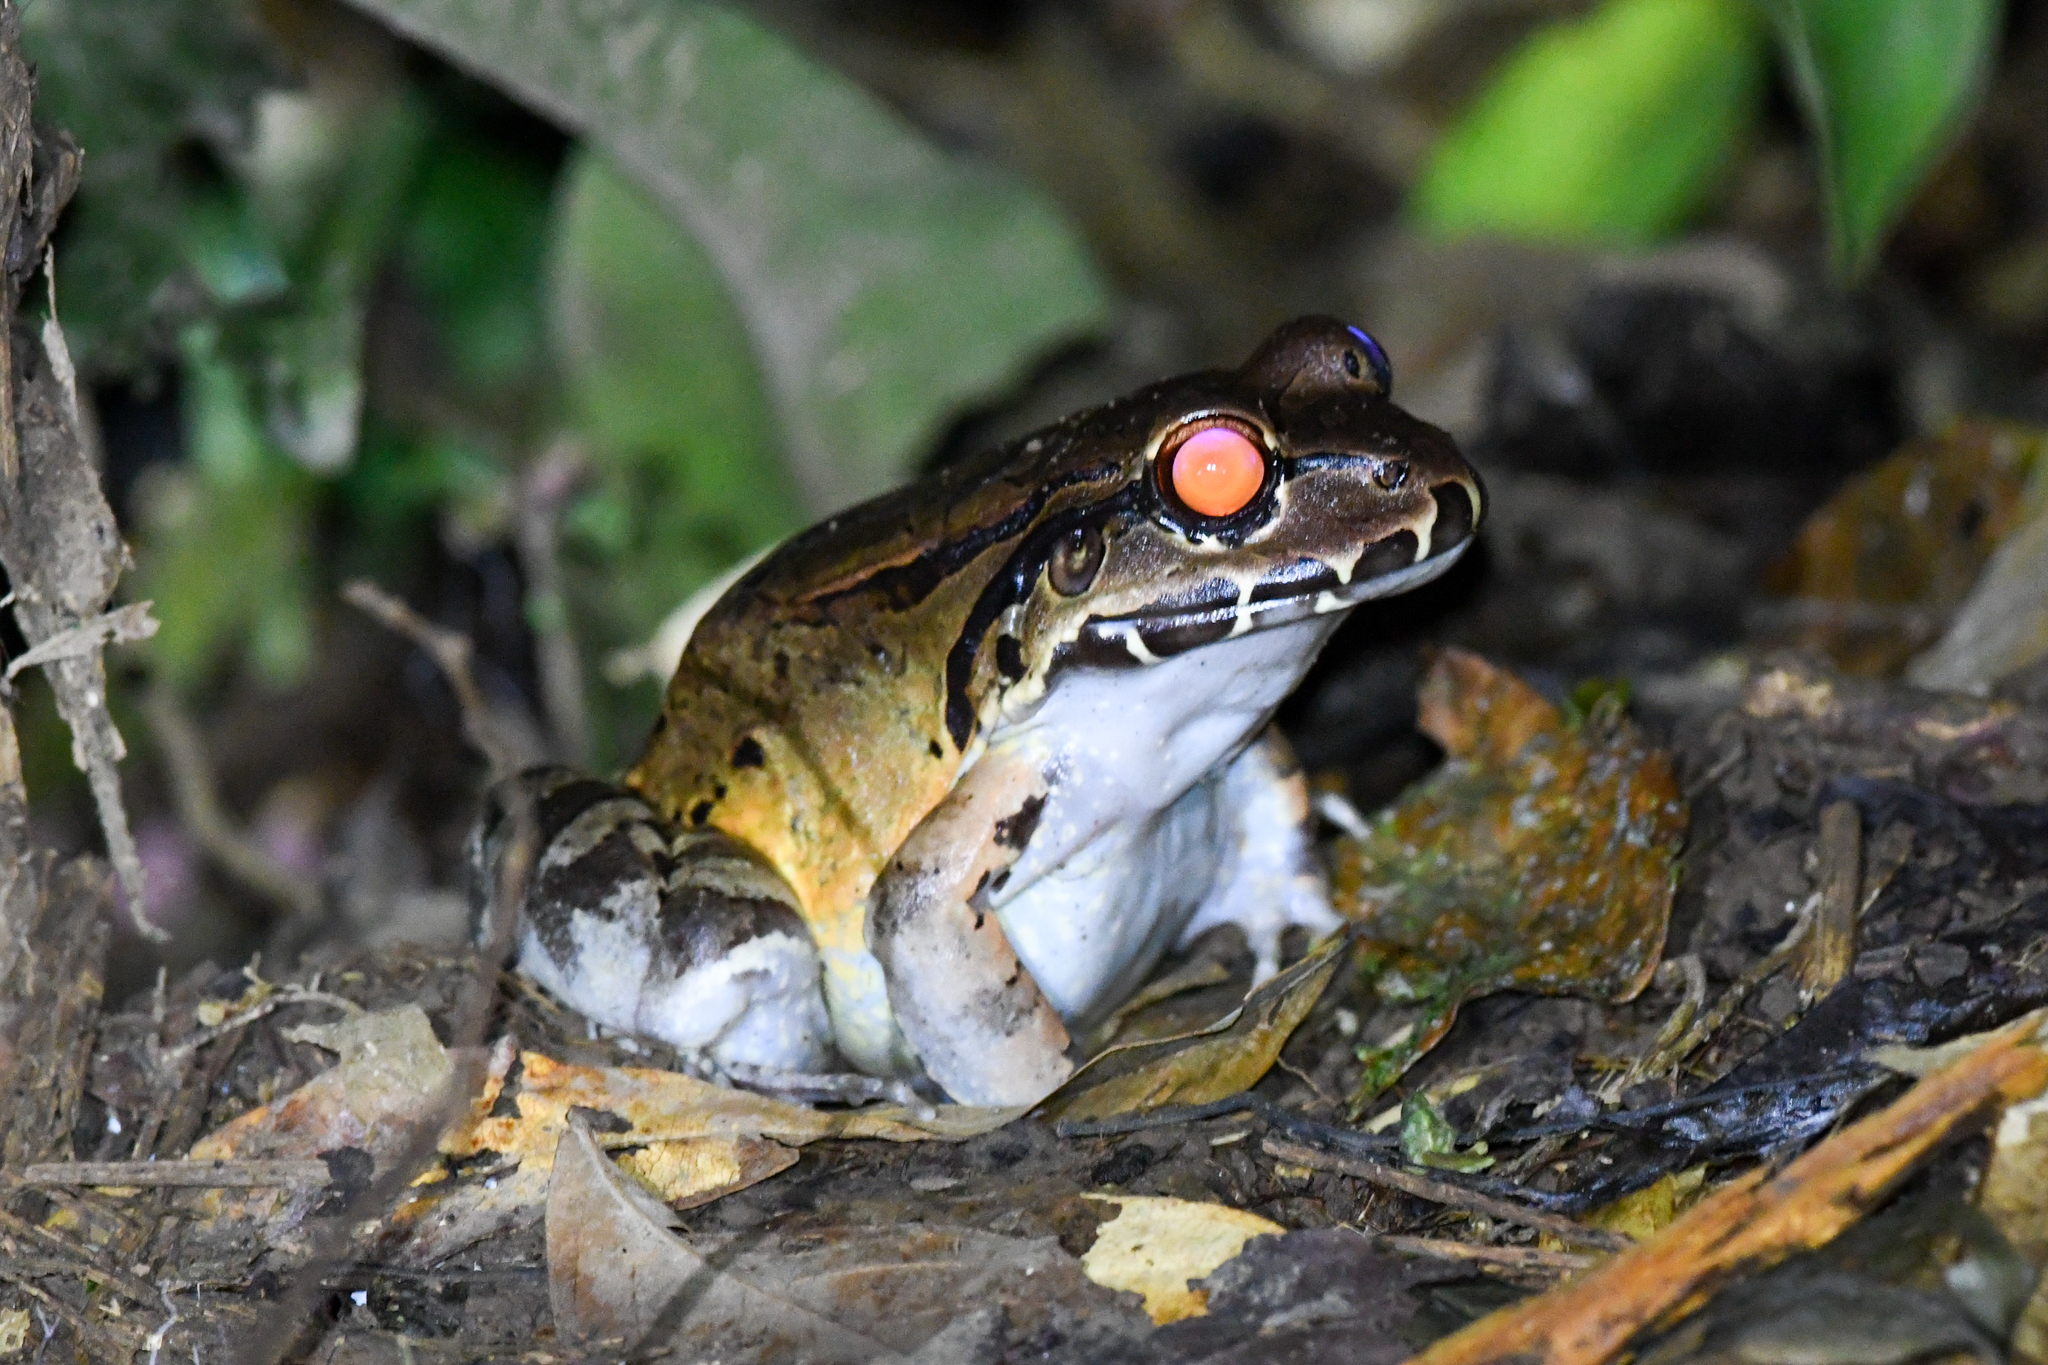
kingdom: Animalia
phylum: Chordata
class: Amphibia
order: Anura
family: Leptodactylidae
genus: Leptodactylus
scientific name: Leptodactylus savagei
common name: Savage's thin-toed frog
